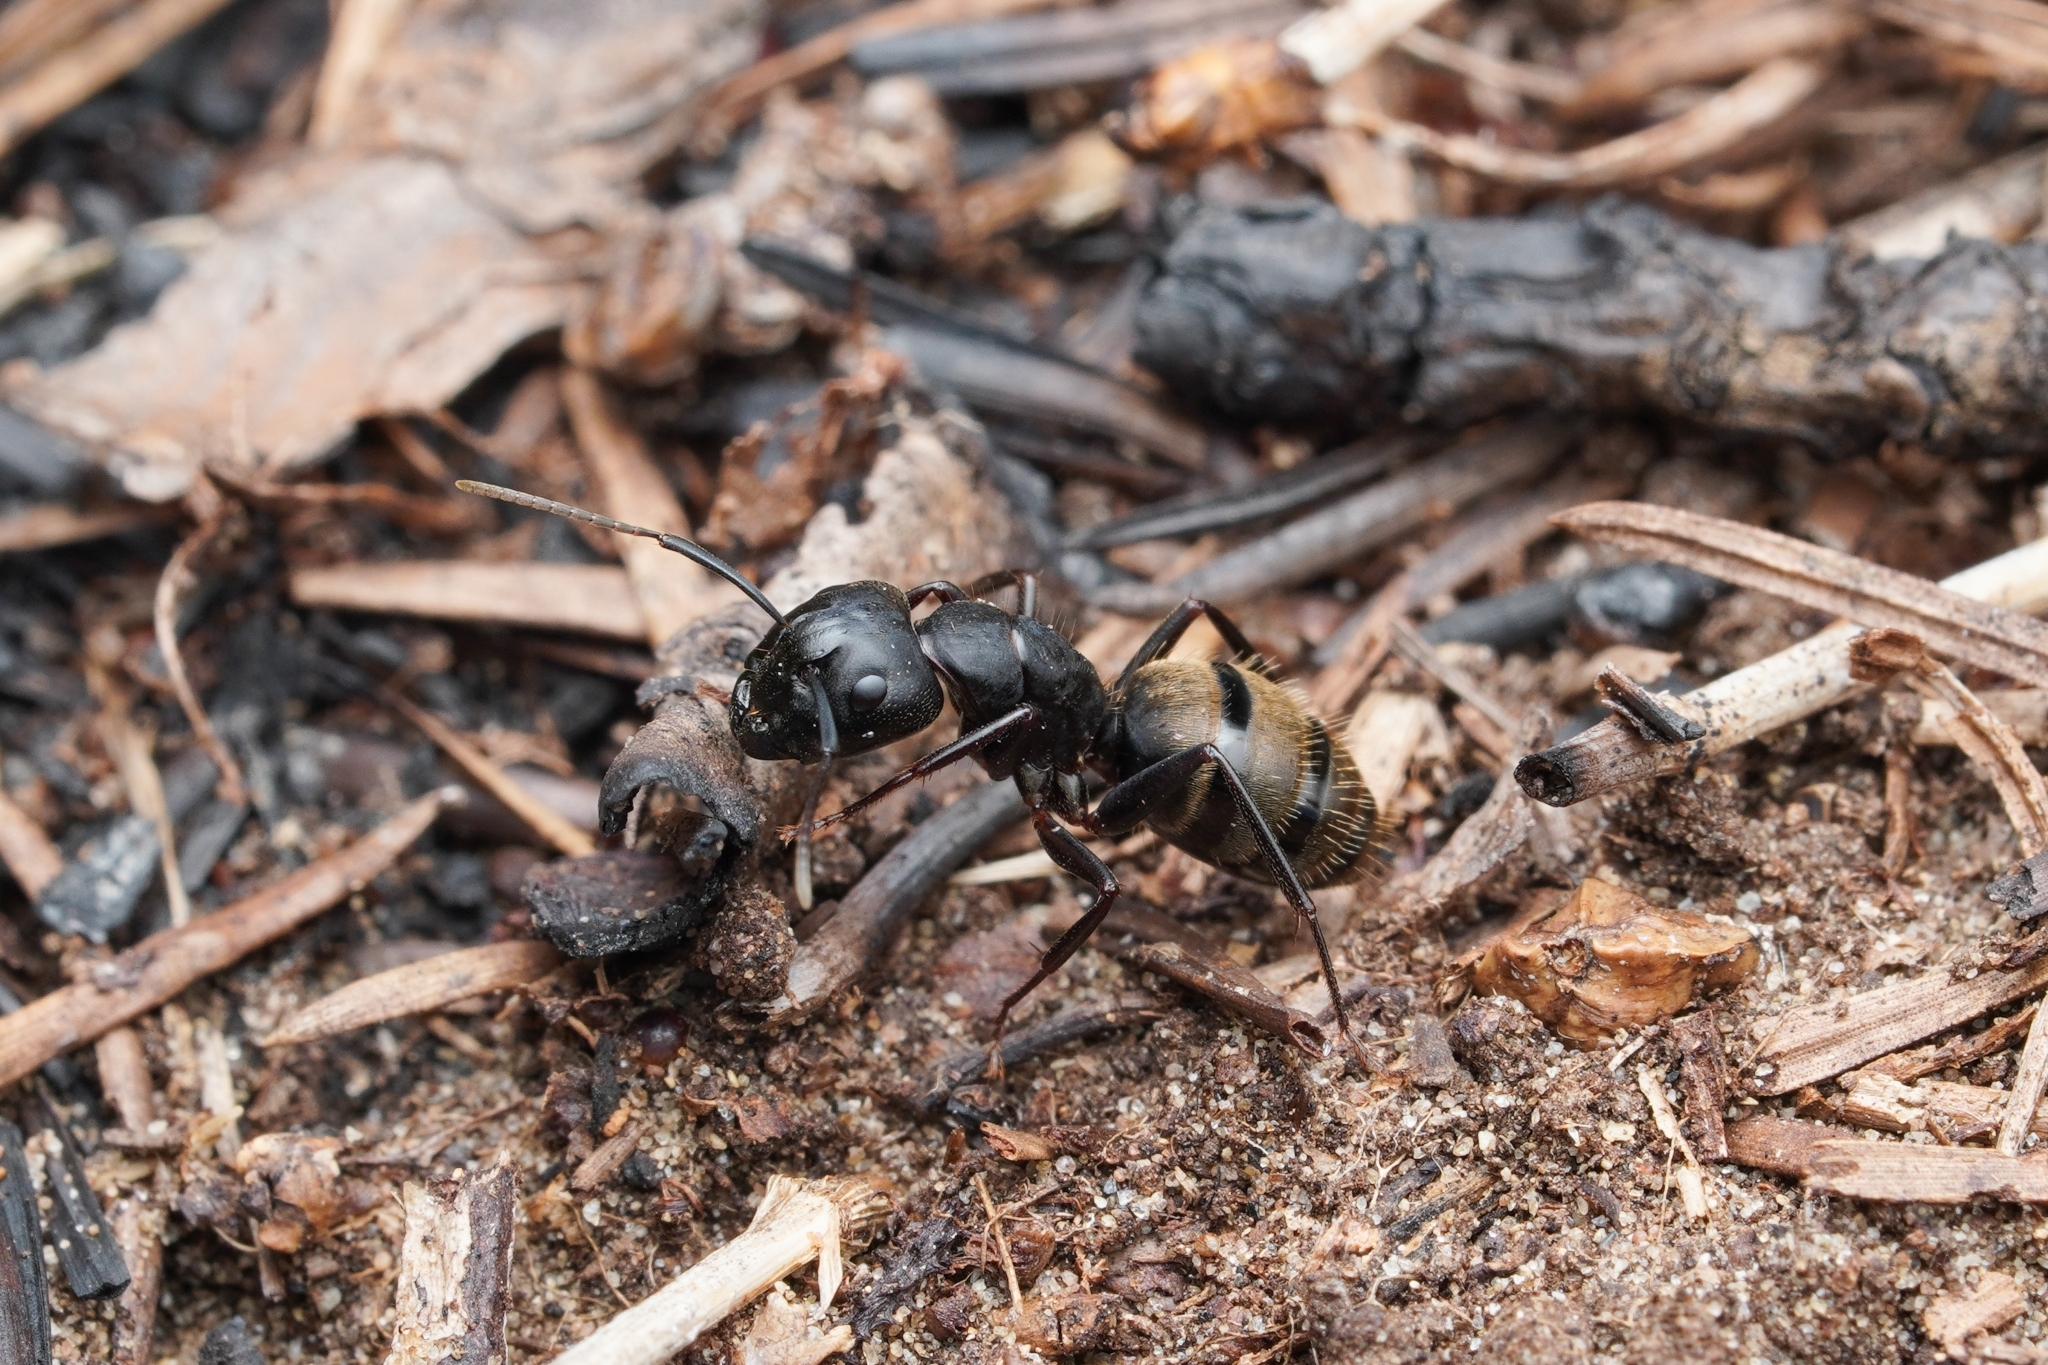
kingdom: Animalia
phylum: Arthropoda
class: Insecta
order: Hymenoptera
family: Formicidae
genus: Camponotus
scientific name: Camponotus pennsylvanicus
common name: Black carpenter ant
